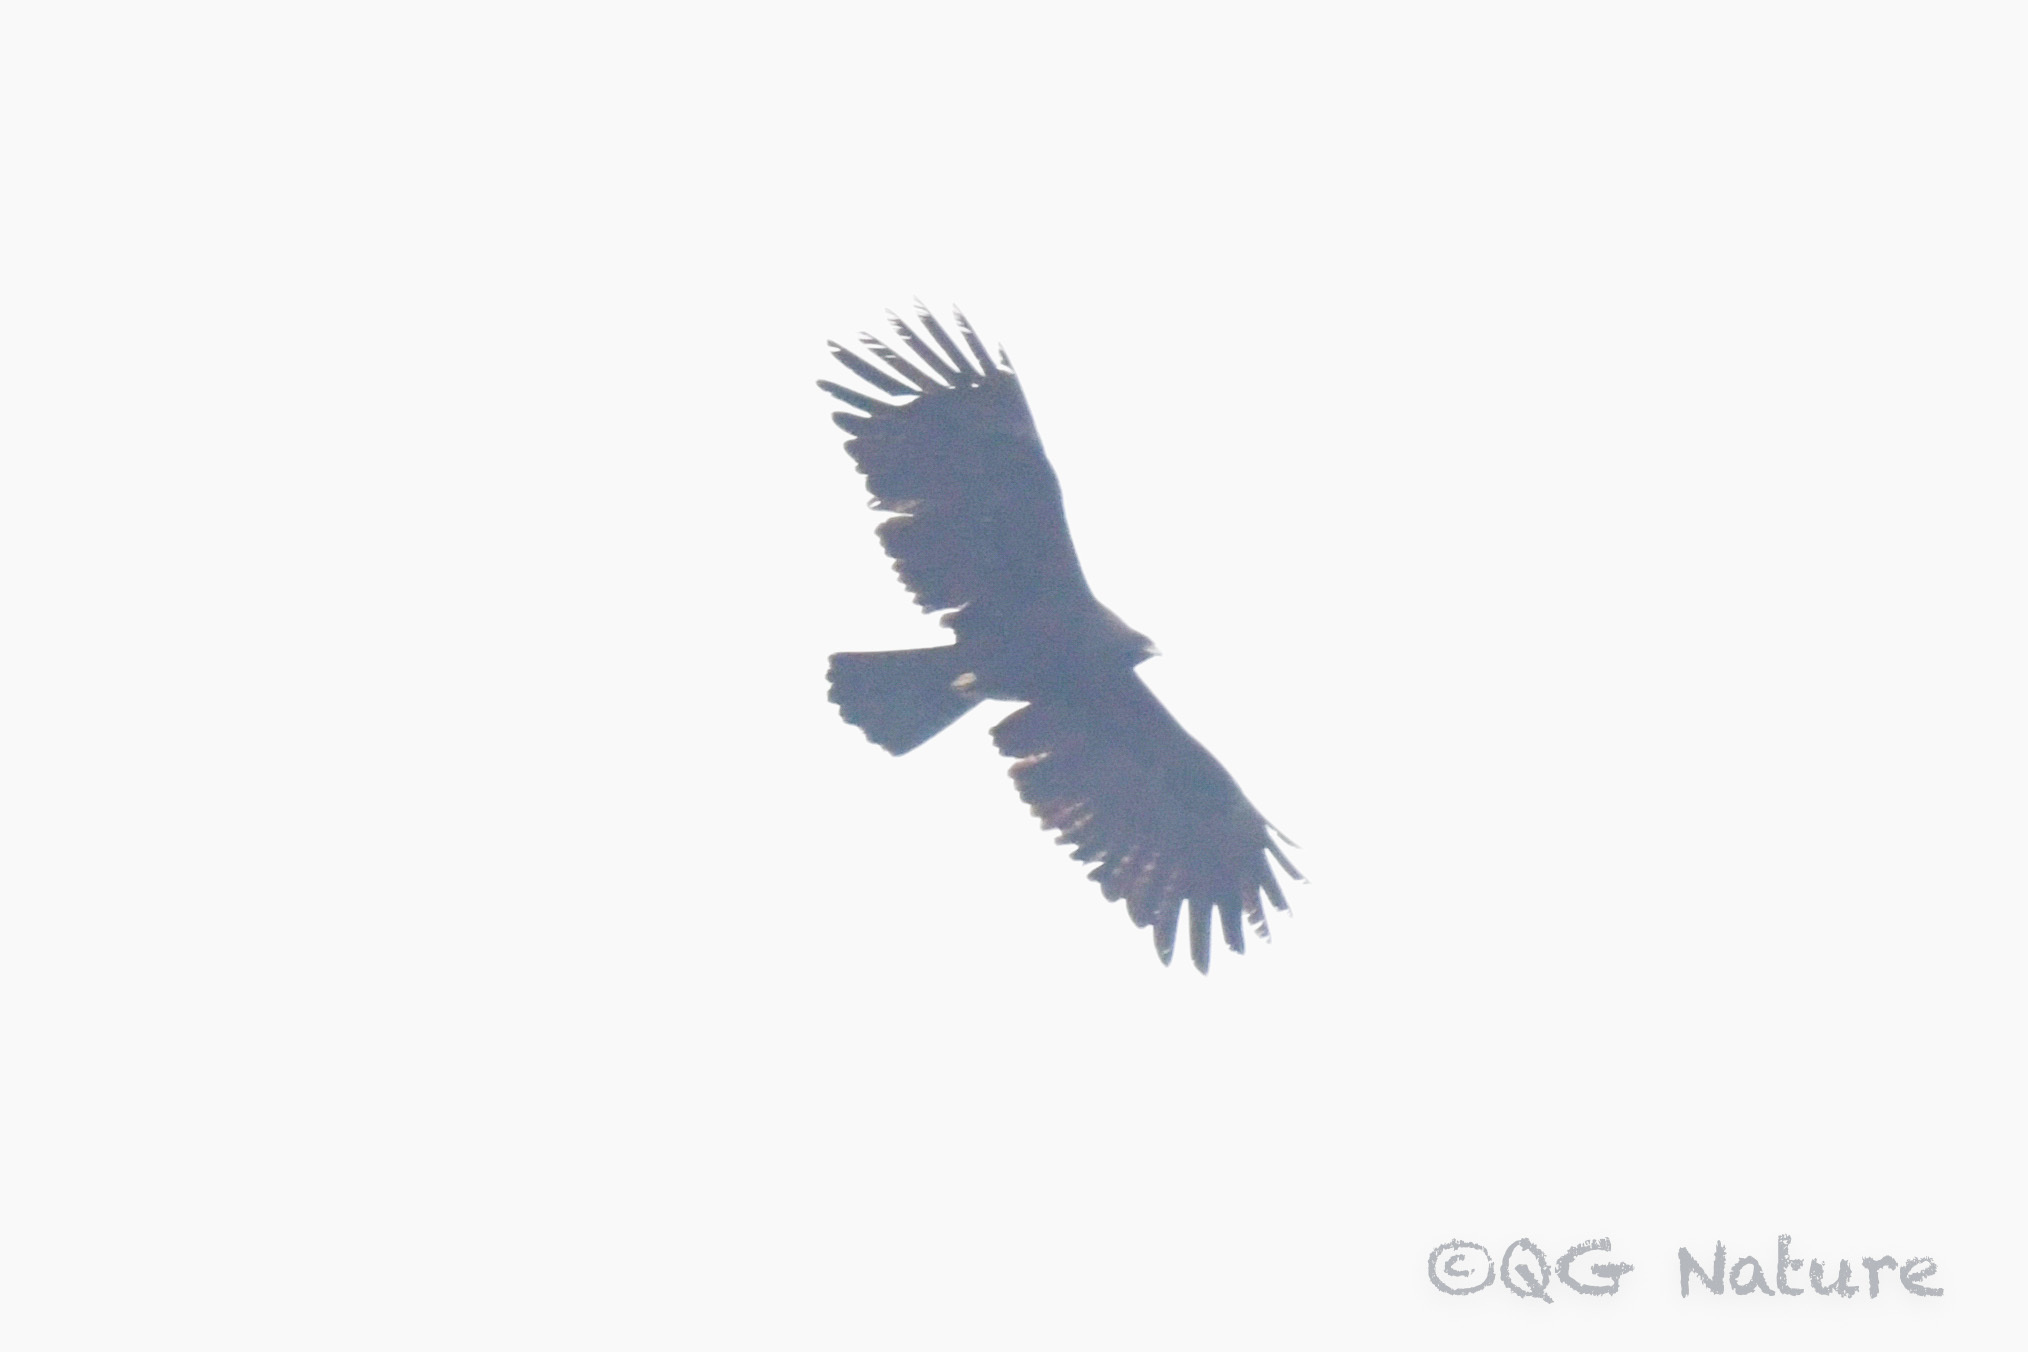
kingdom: Animalia
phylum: Chordata
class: Aves
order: Accipitriformes
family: Accipitridae
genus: Ictinaetus
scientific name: Ictinaetus malayensis
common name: Black eagle
